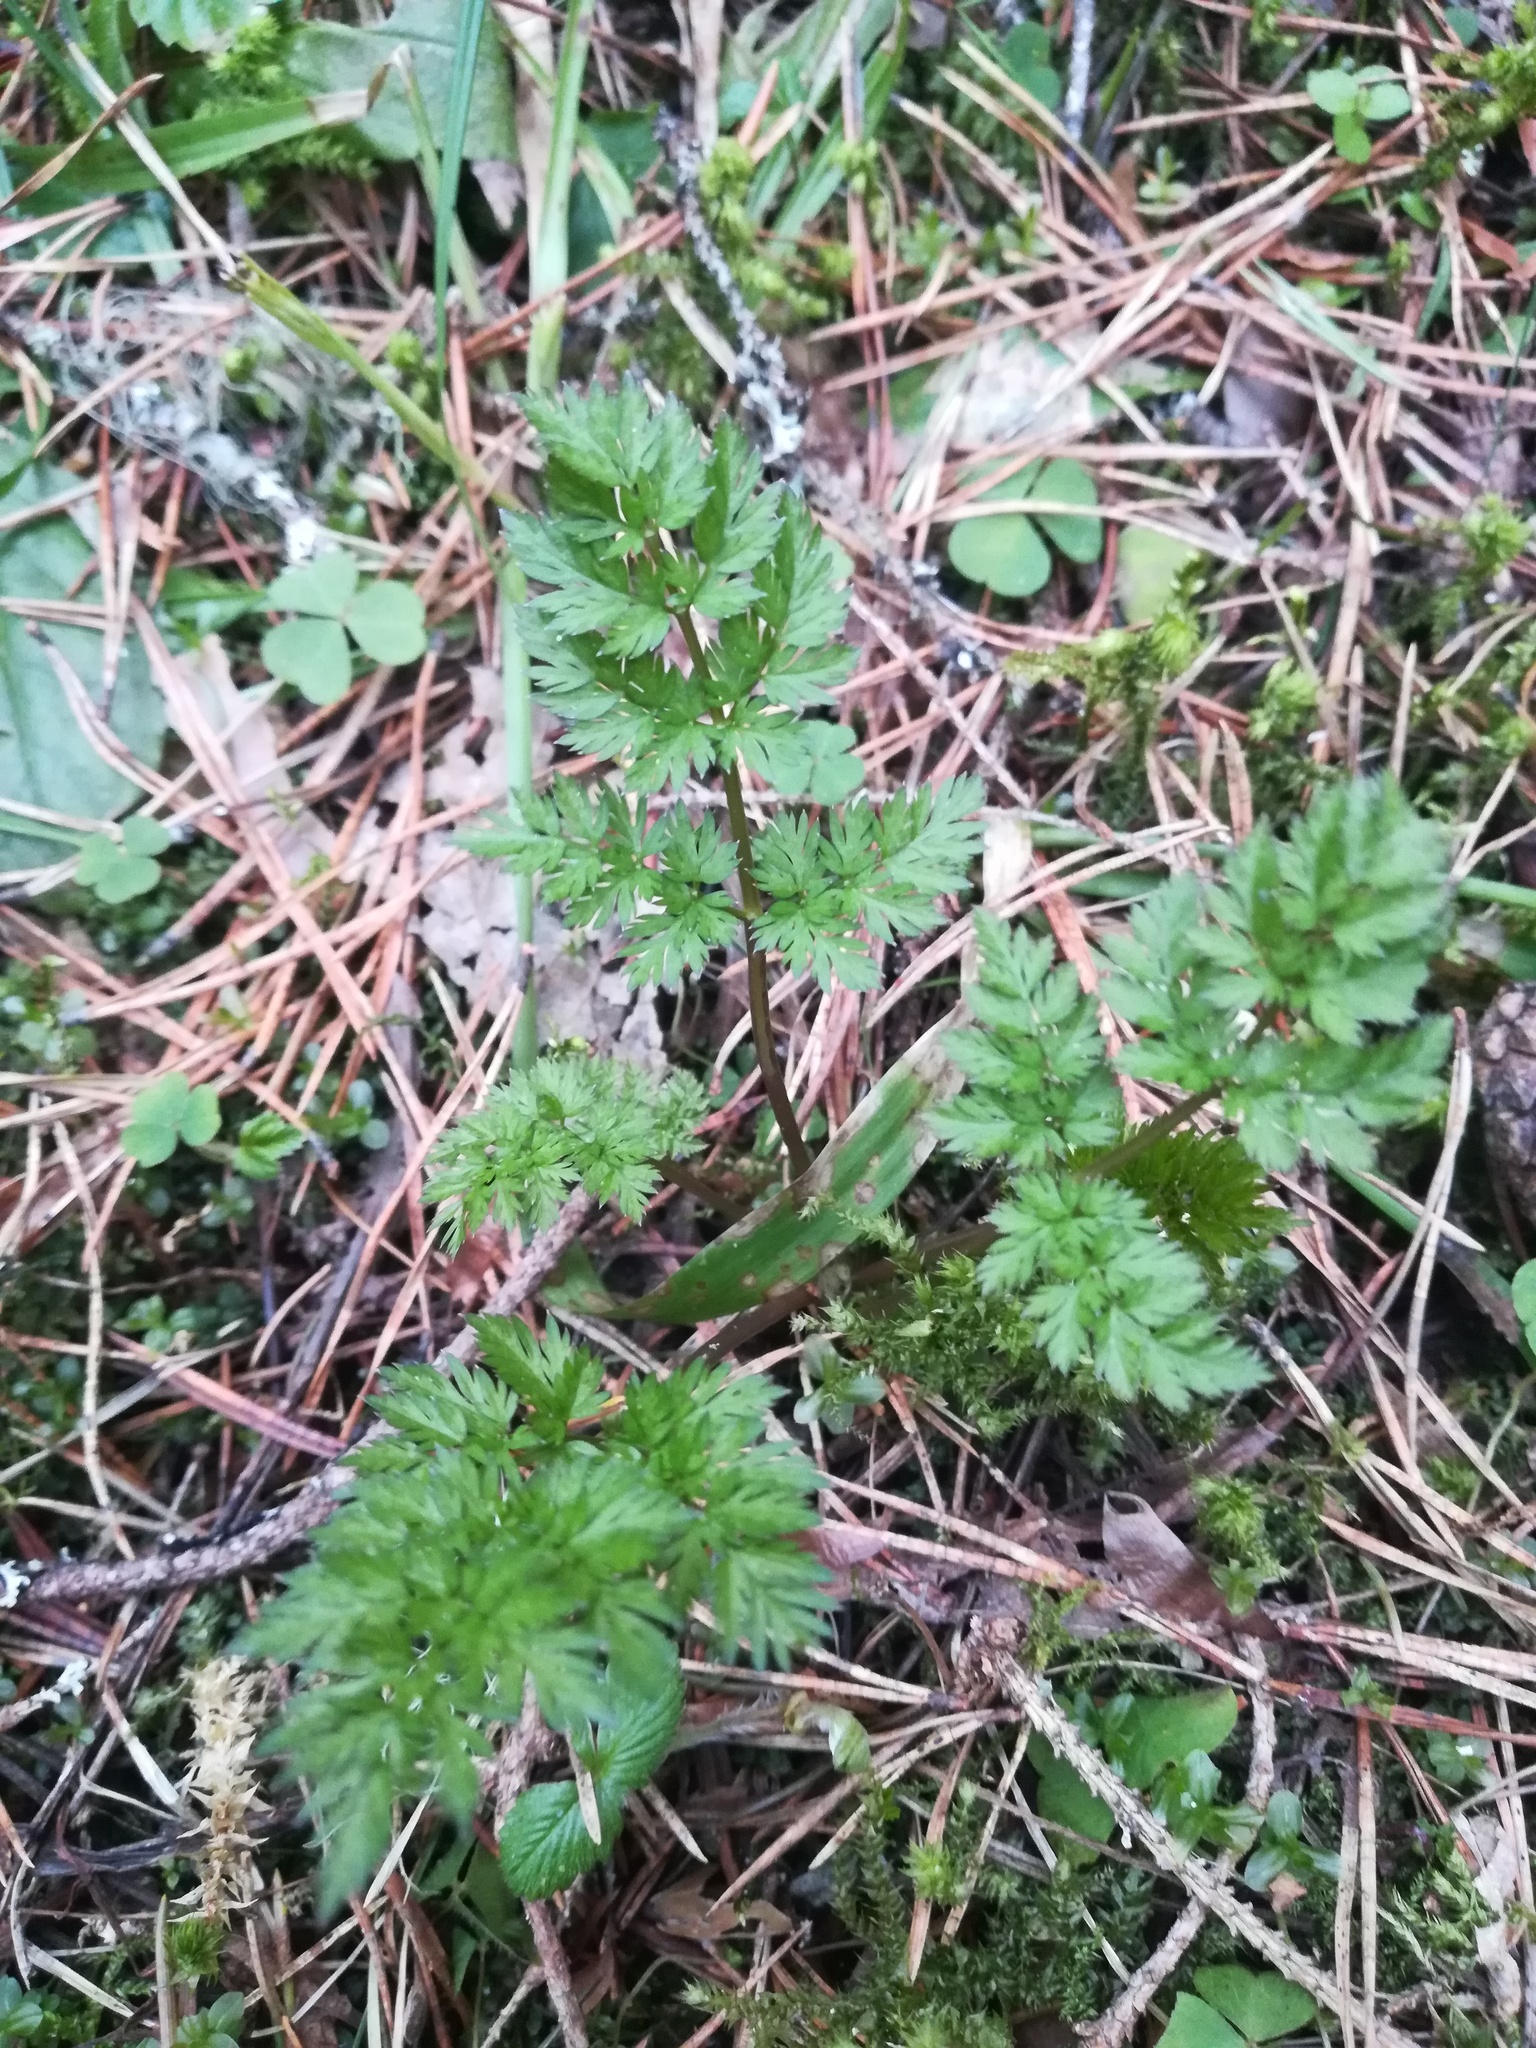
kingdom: Plantae
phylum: Tracheophyta
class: Magnoliopsida
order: Apiales
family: Apiaceae
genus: Anthriscus
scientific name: Anthriscus sylvestris
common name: Cow parsley
